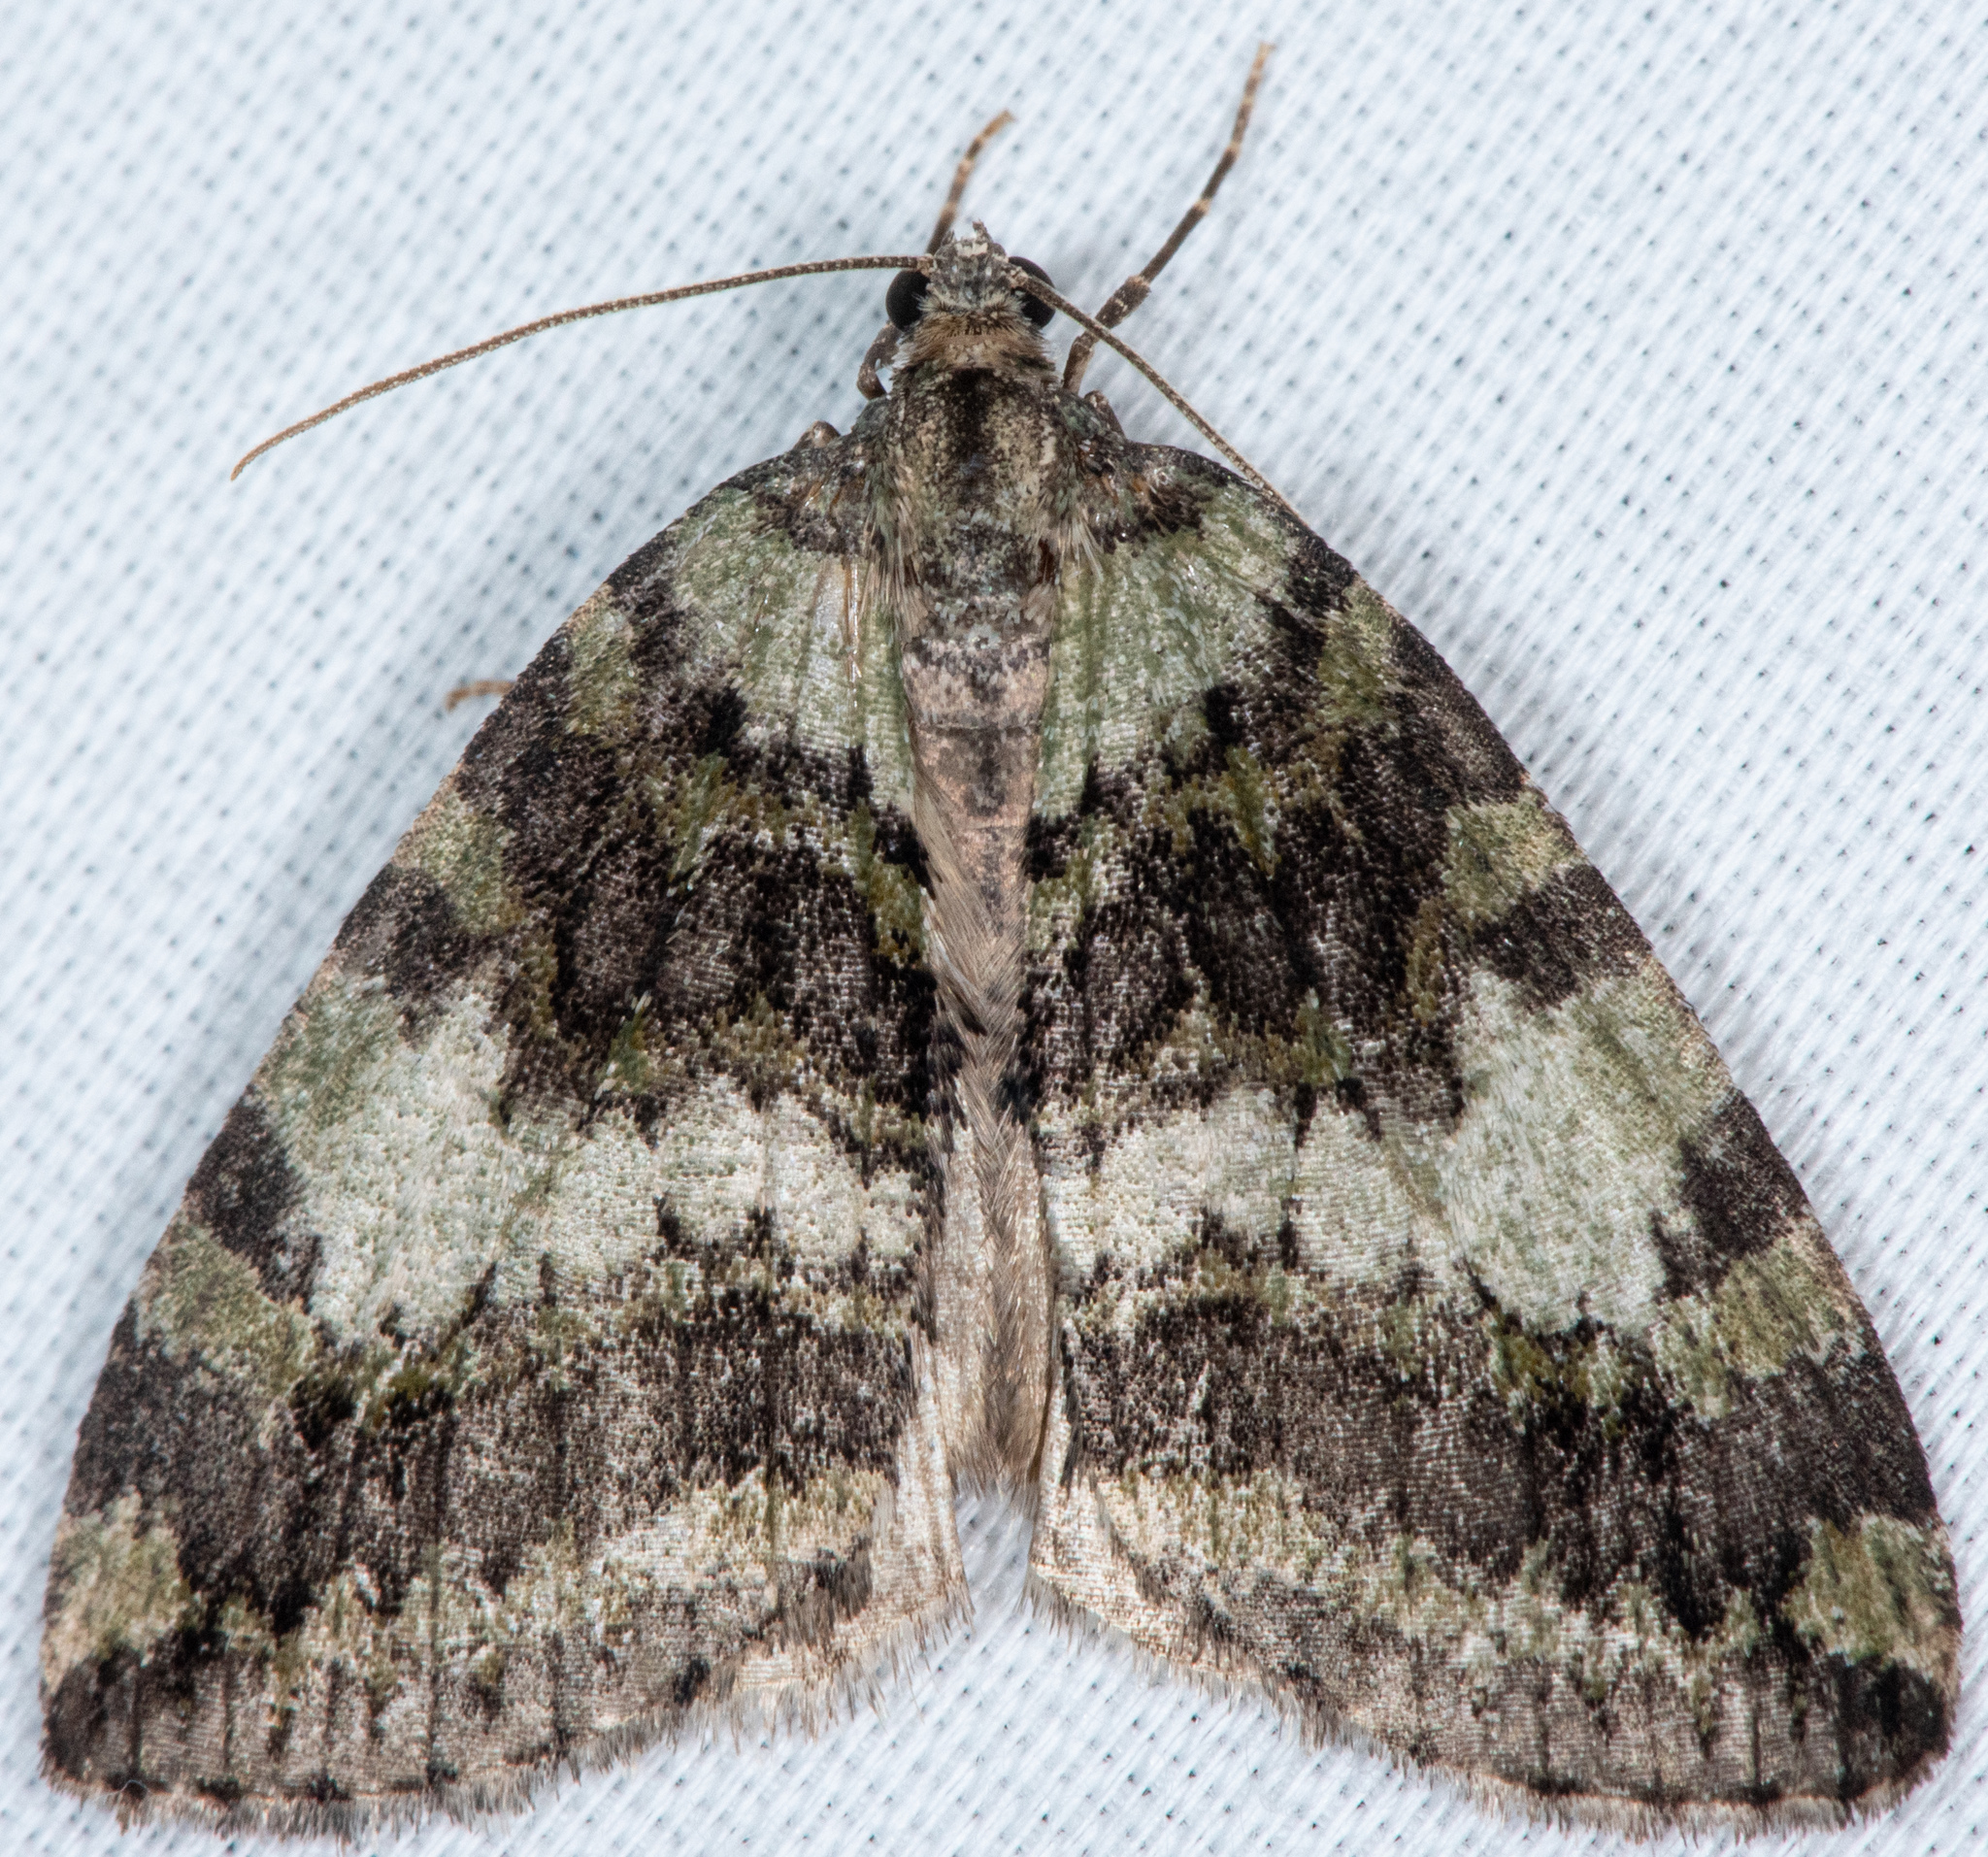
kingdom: Animalia
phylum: Arthropoda
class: Insecta
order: Lepidoptera
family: Geometridae
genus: Hydriomena
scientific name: Hydriomena nubilofasciata
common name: Oak winter highflier moth
